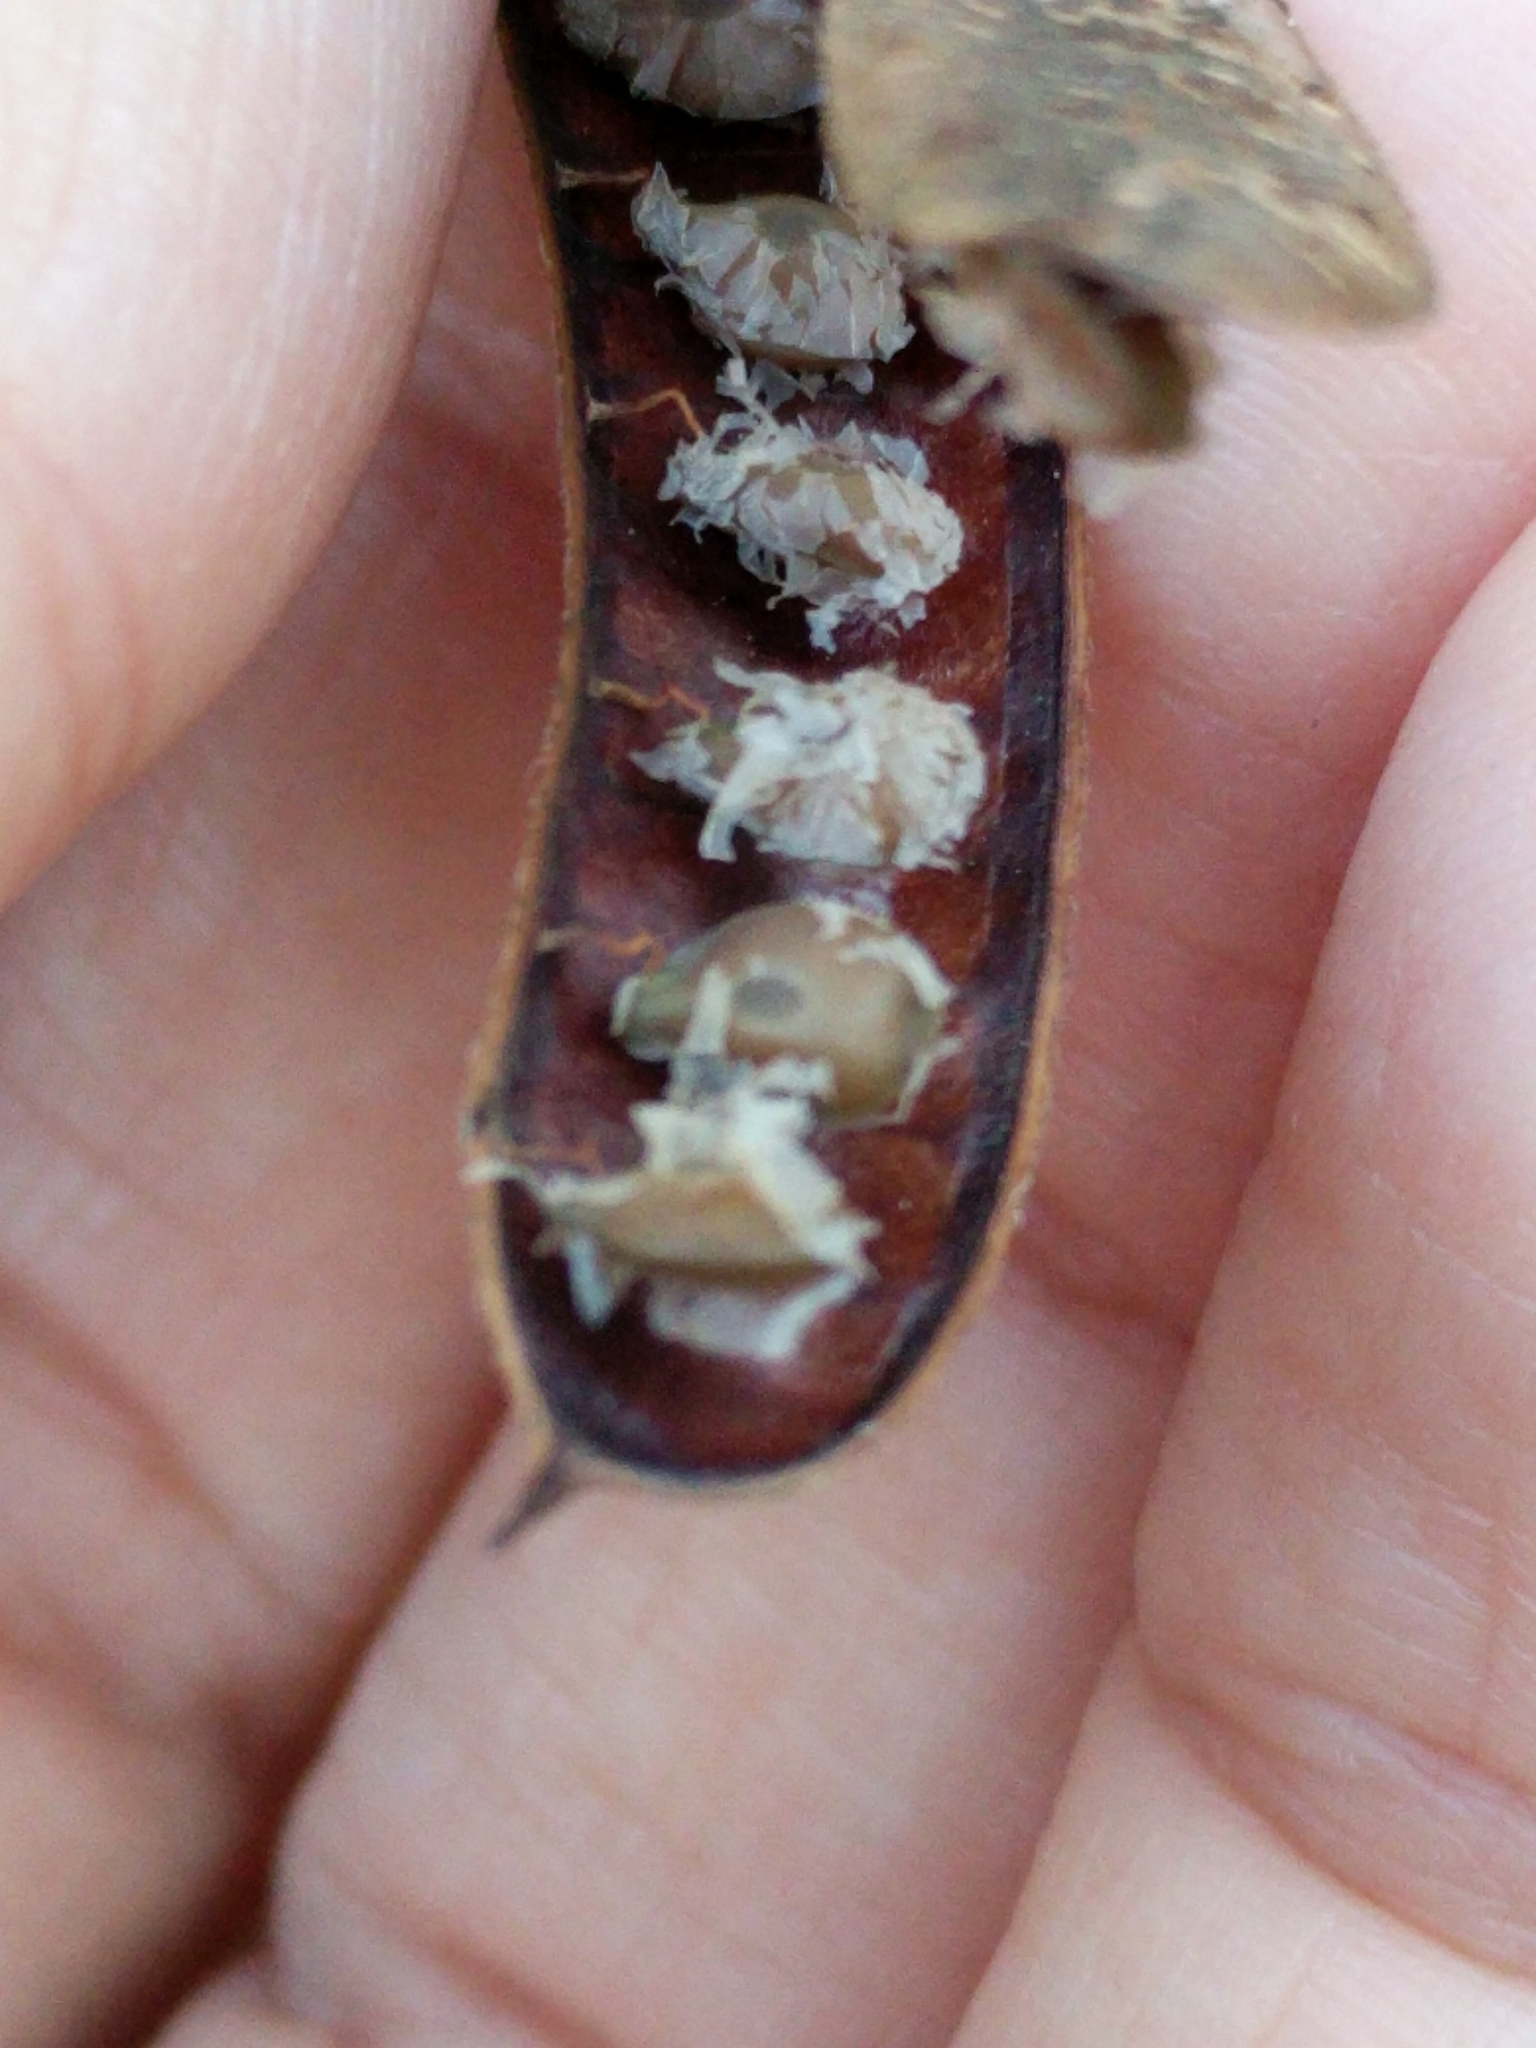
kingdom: Plantae
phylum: Tracheophyta
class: Magnoliopsida
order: Fabales
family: Fabaceae
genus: Senna
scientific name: Senna lindheimeriana
